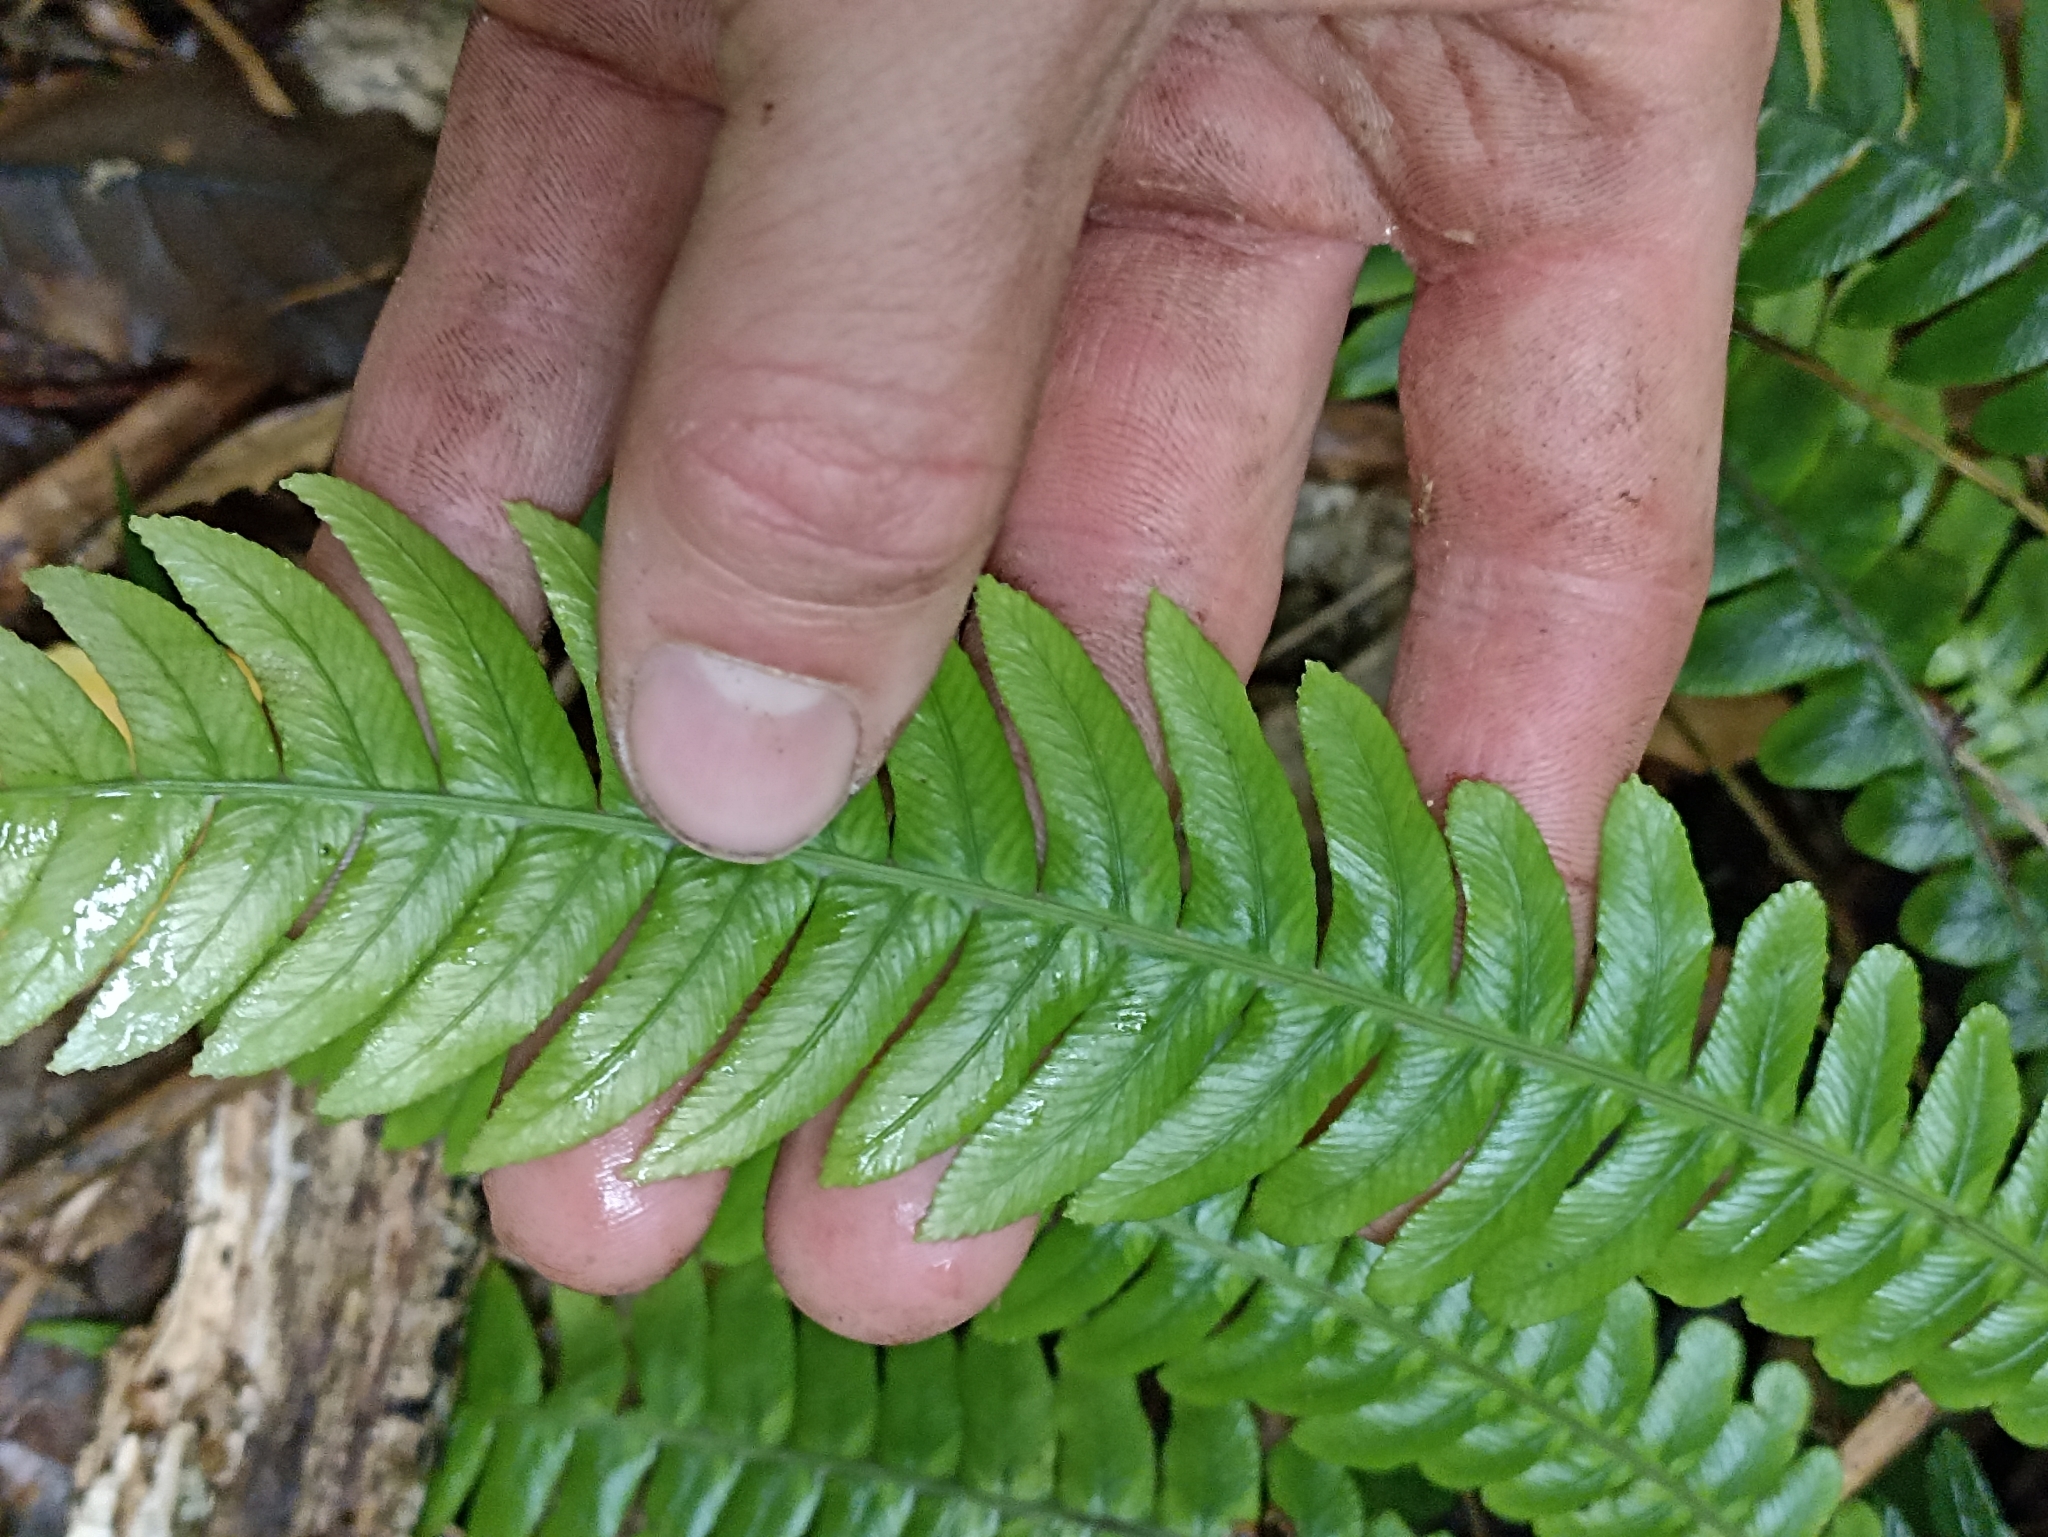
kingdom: Plantae
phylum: Tracheophyta
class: Polypodiopsida
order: Polypodiales
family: Blechnaceae
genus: Austroblechnum
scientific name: Austroblechnum lanceolatum
